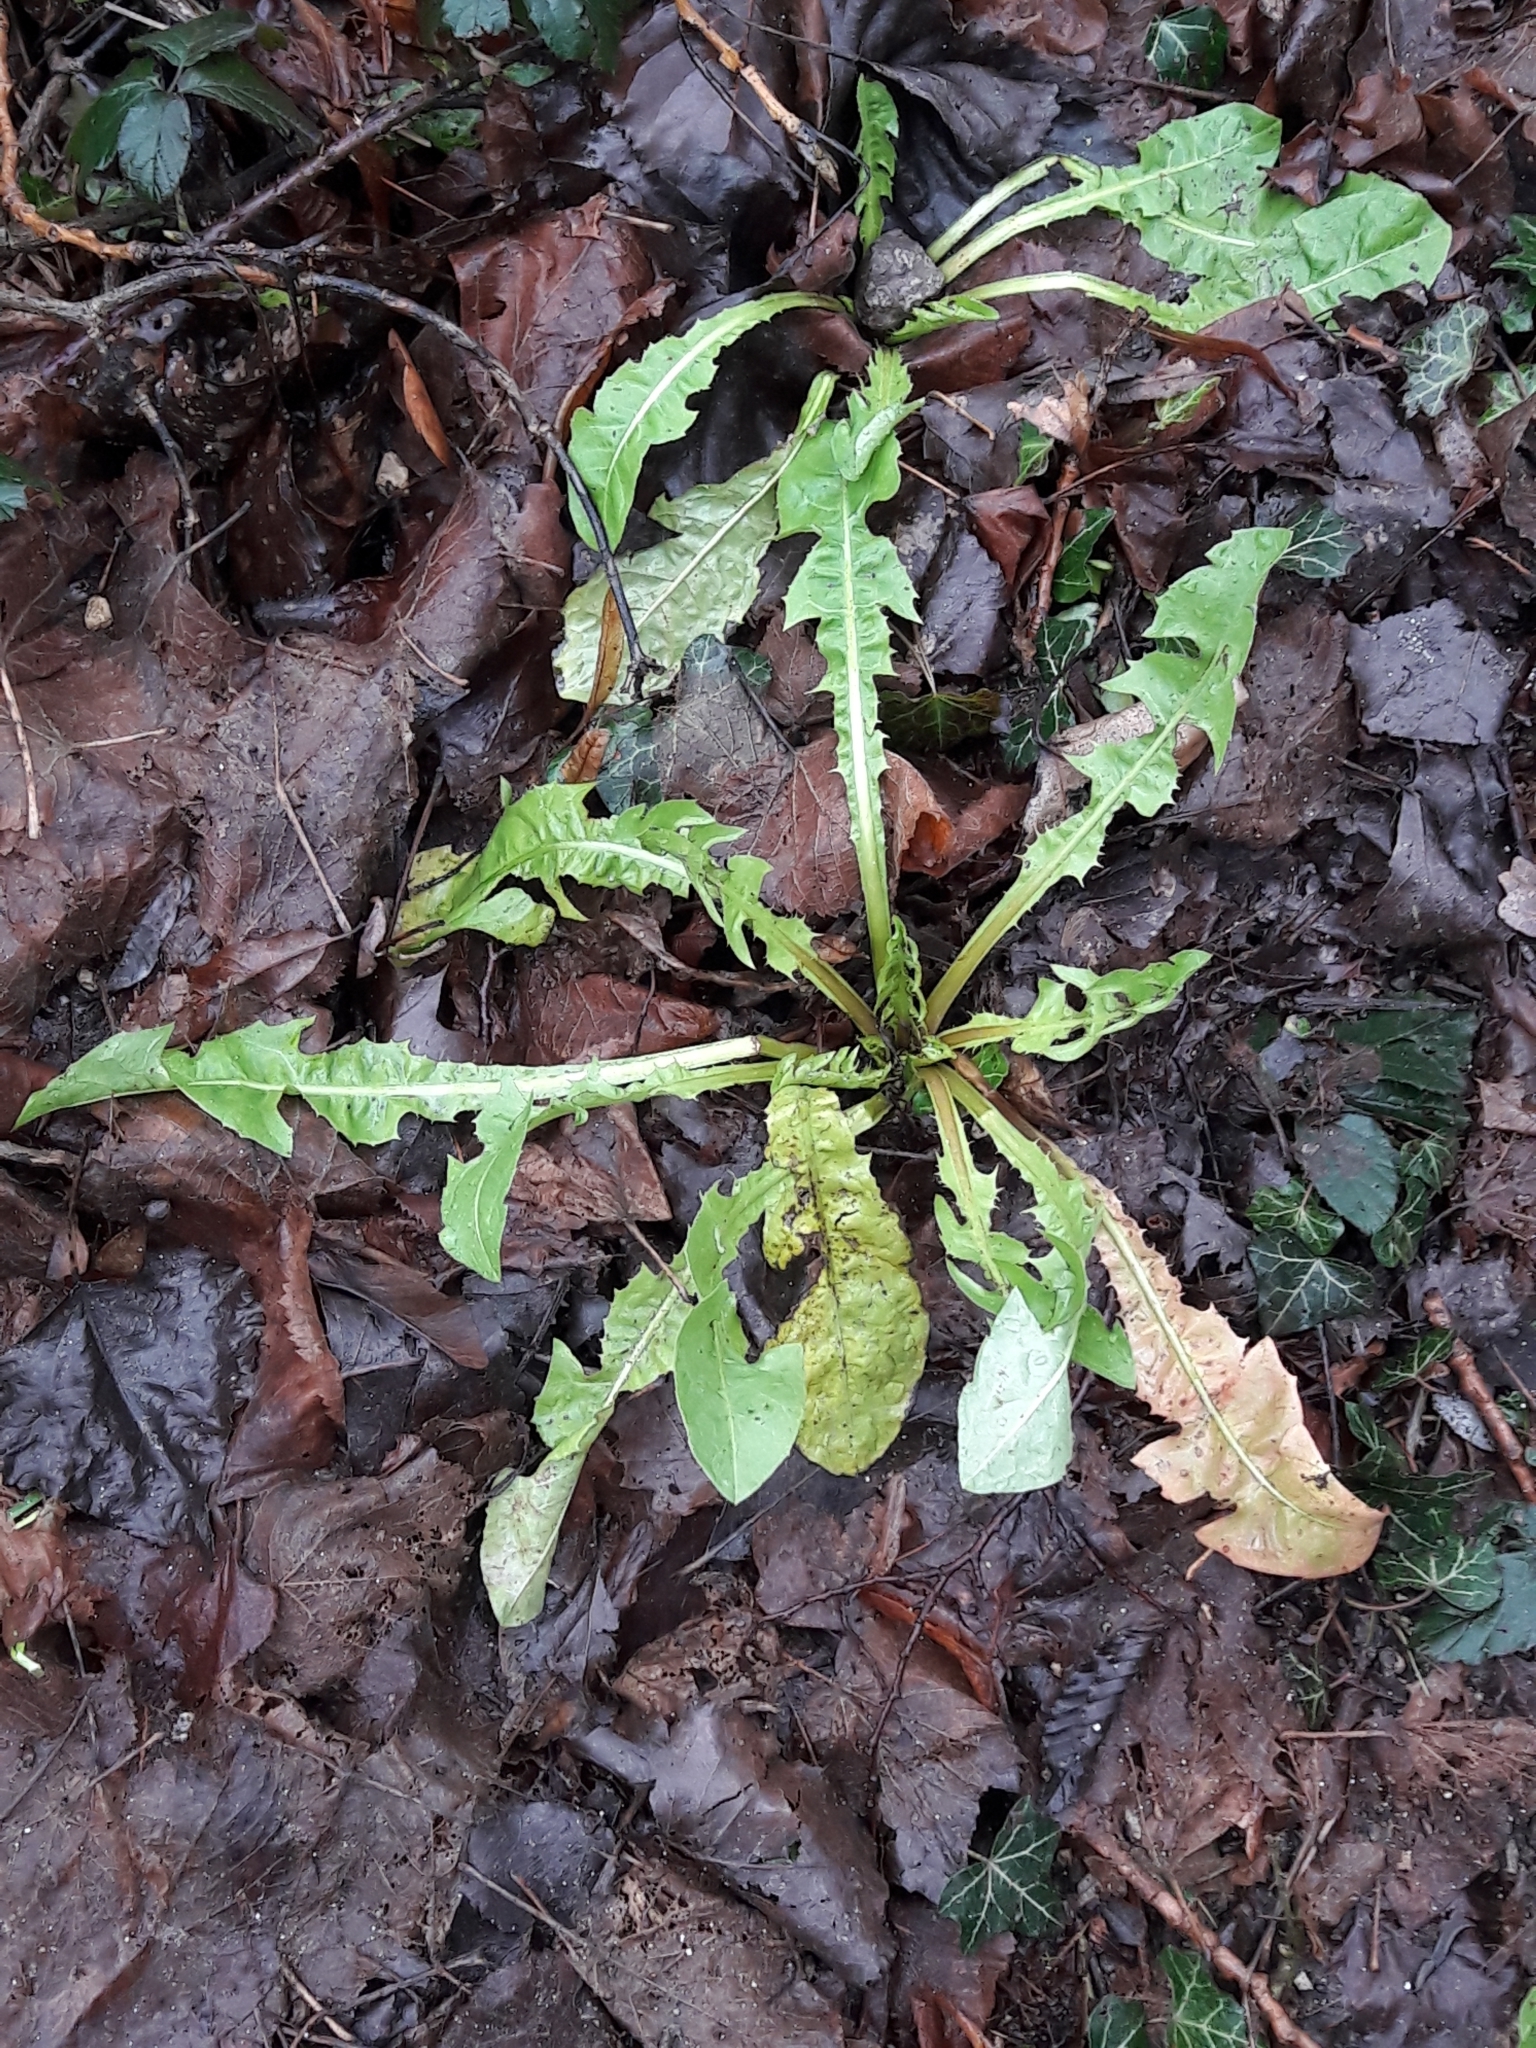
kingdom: Plantae
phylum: Tracheophyta
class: Magnoliopsida
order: Asterales
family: Asteraceae
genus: Taraxacum
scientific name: Taraxacum officinale
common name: Common dandelion
